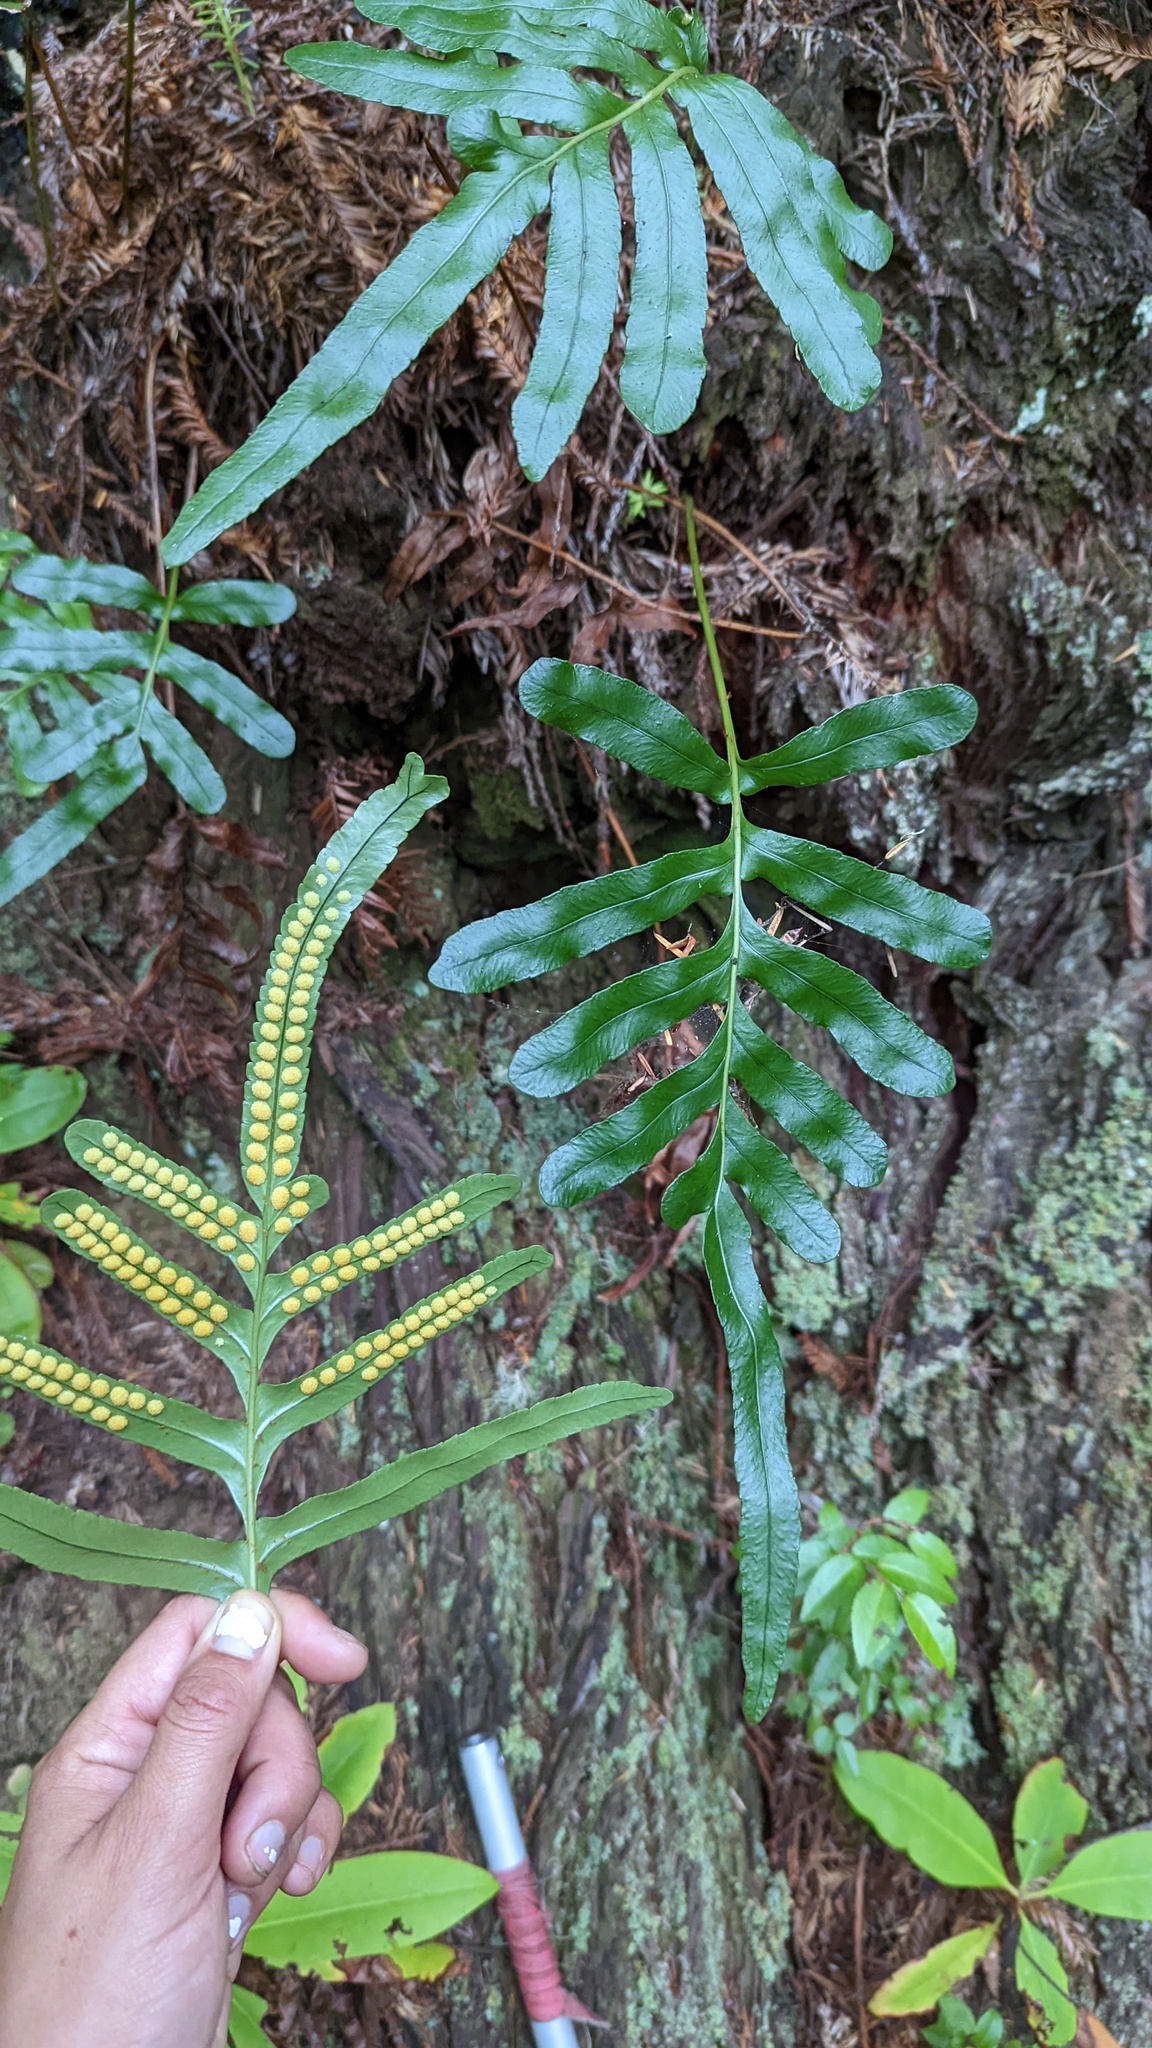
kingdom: Plantae
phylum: Tracheophyta
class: Polypodiopsida
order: Polypodiales
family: Polypodiaceae
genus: Polypodium
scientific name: Polypodium scouleri
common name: Scouler's polypody
